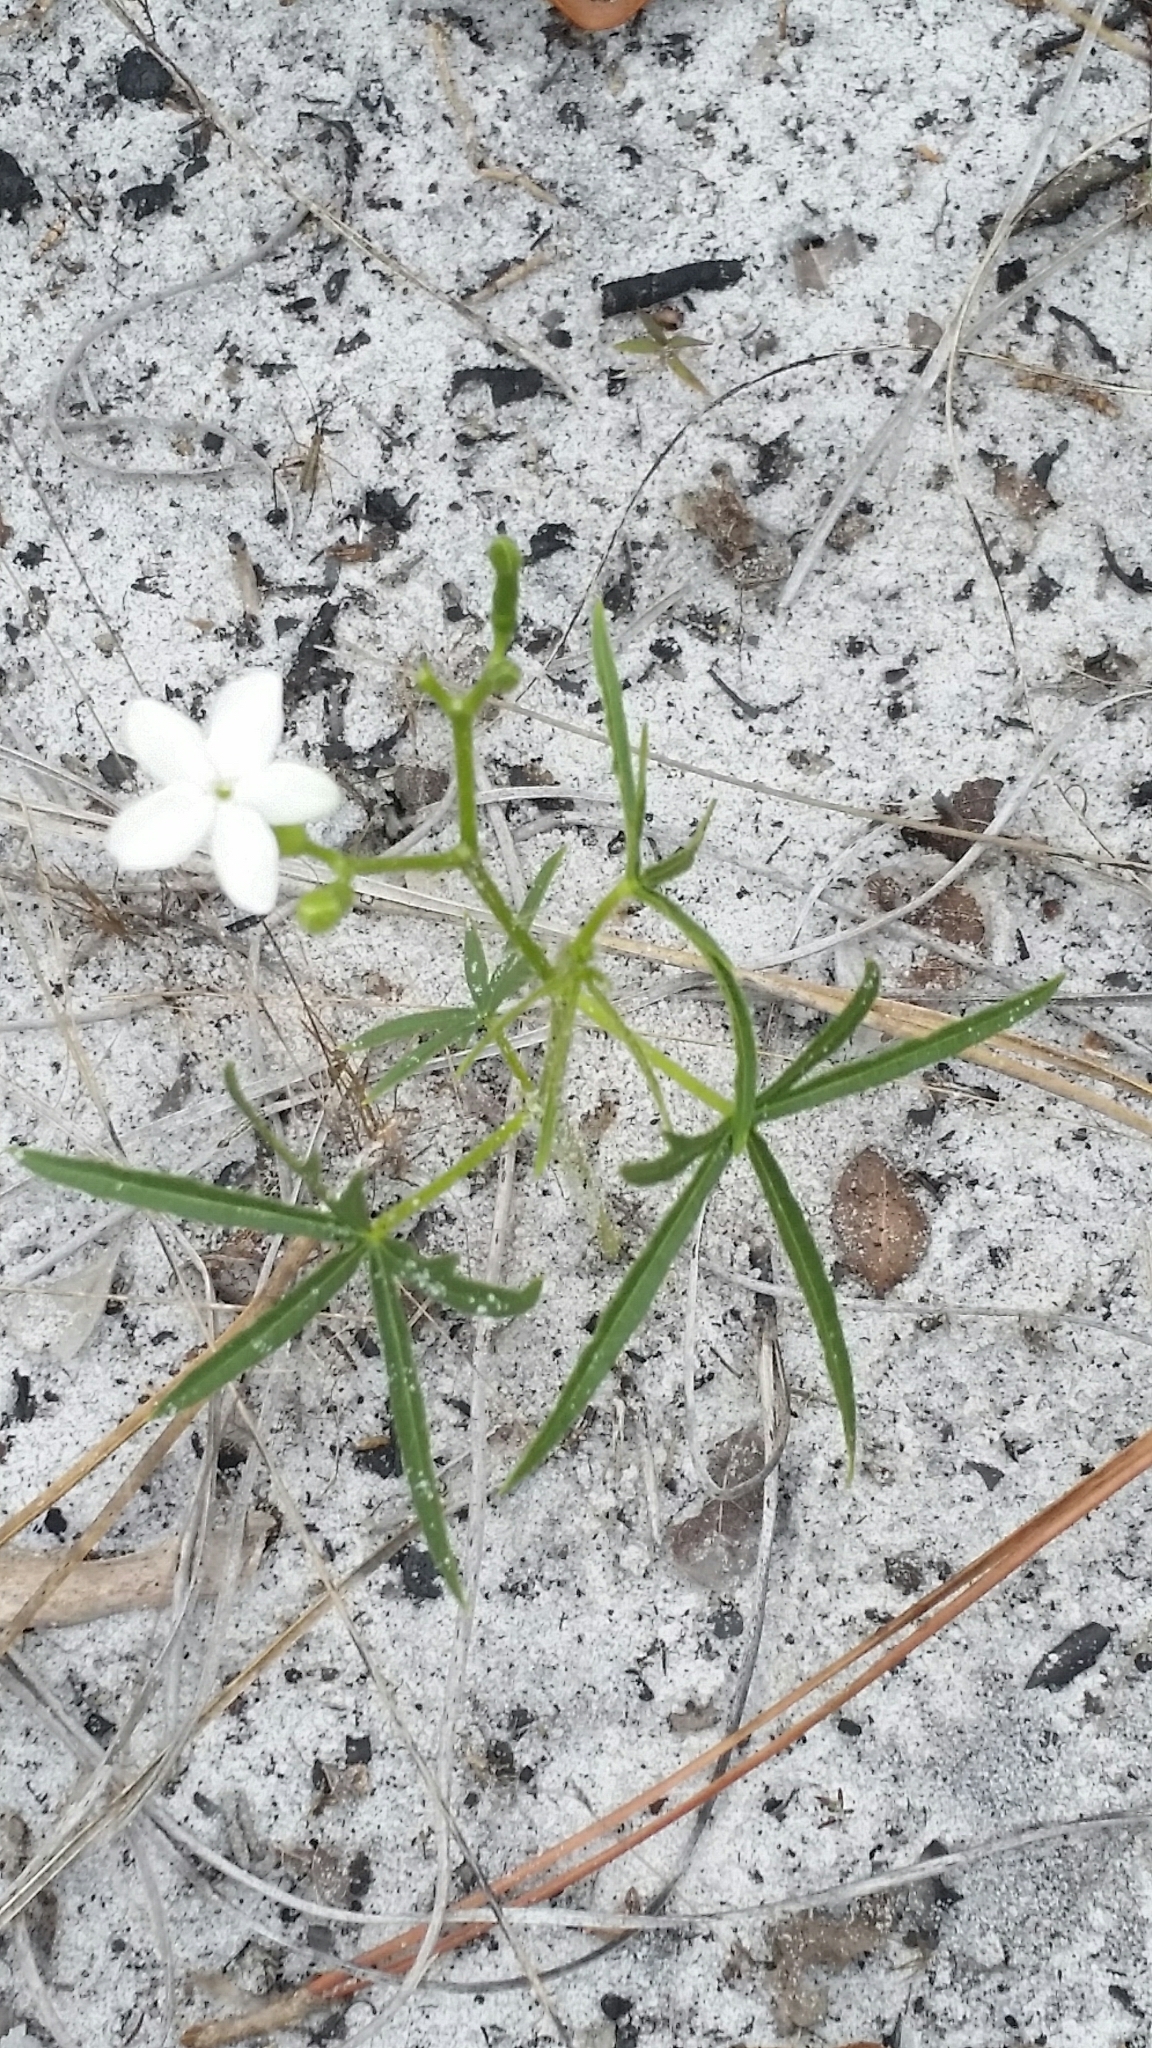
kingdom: Plantae
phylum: Tracheophyta
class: Magnoliopsida
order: Malpighiales
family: Euphorbiaceae
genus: Cnidoscolus
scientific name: Cnidoscolus stimulosus
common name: Bull-nettle
